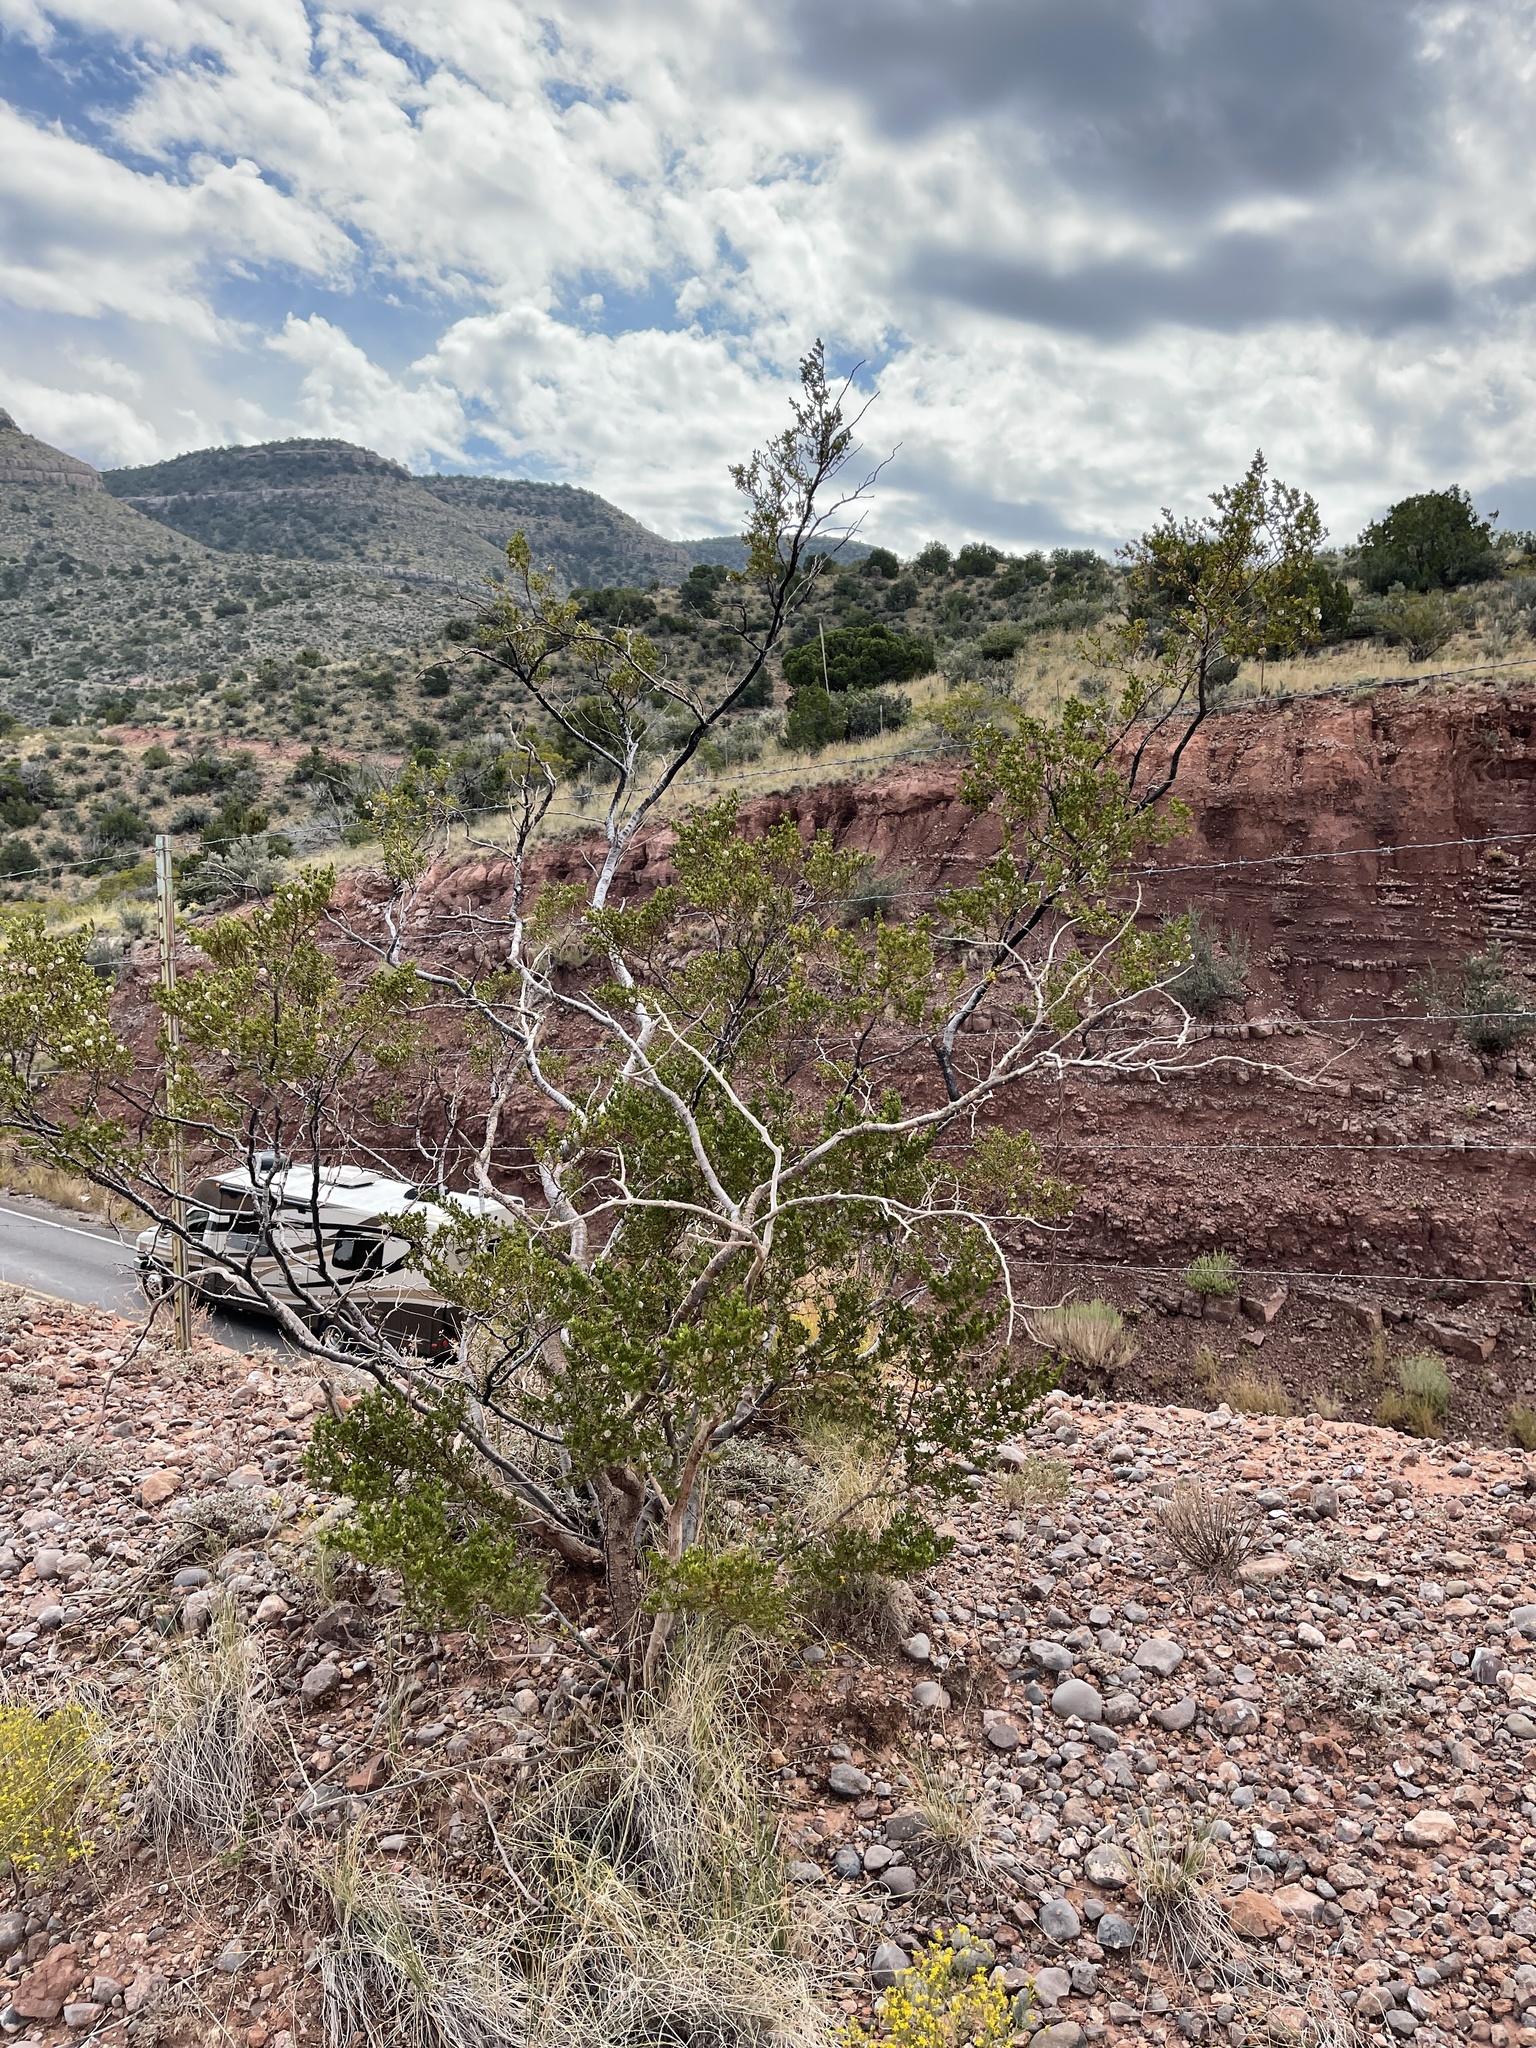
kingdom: Plantae
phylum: Tracheophyta
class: Magnoliopsida
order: Zygophyllales
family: Zygophyllaceae
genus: Larrea
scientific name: Larrea tridentata
